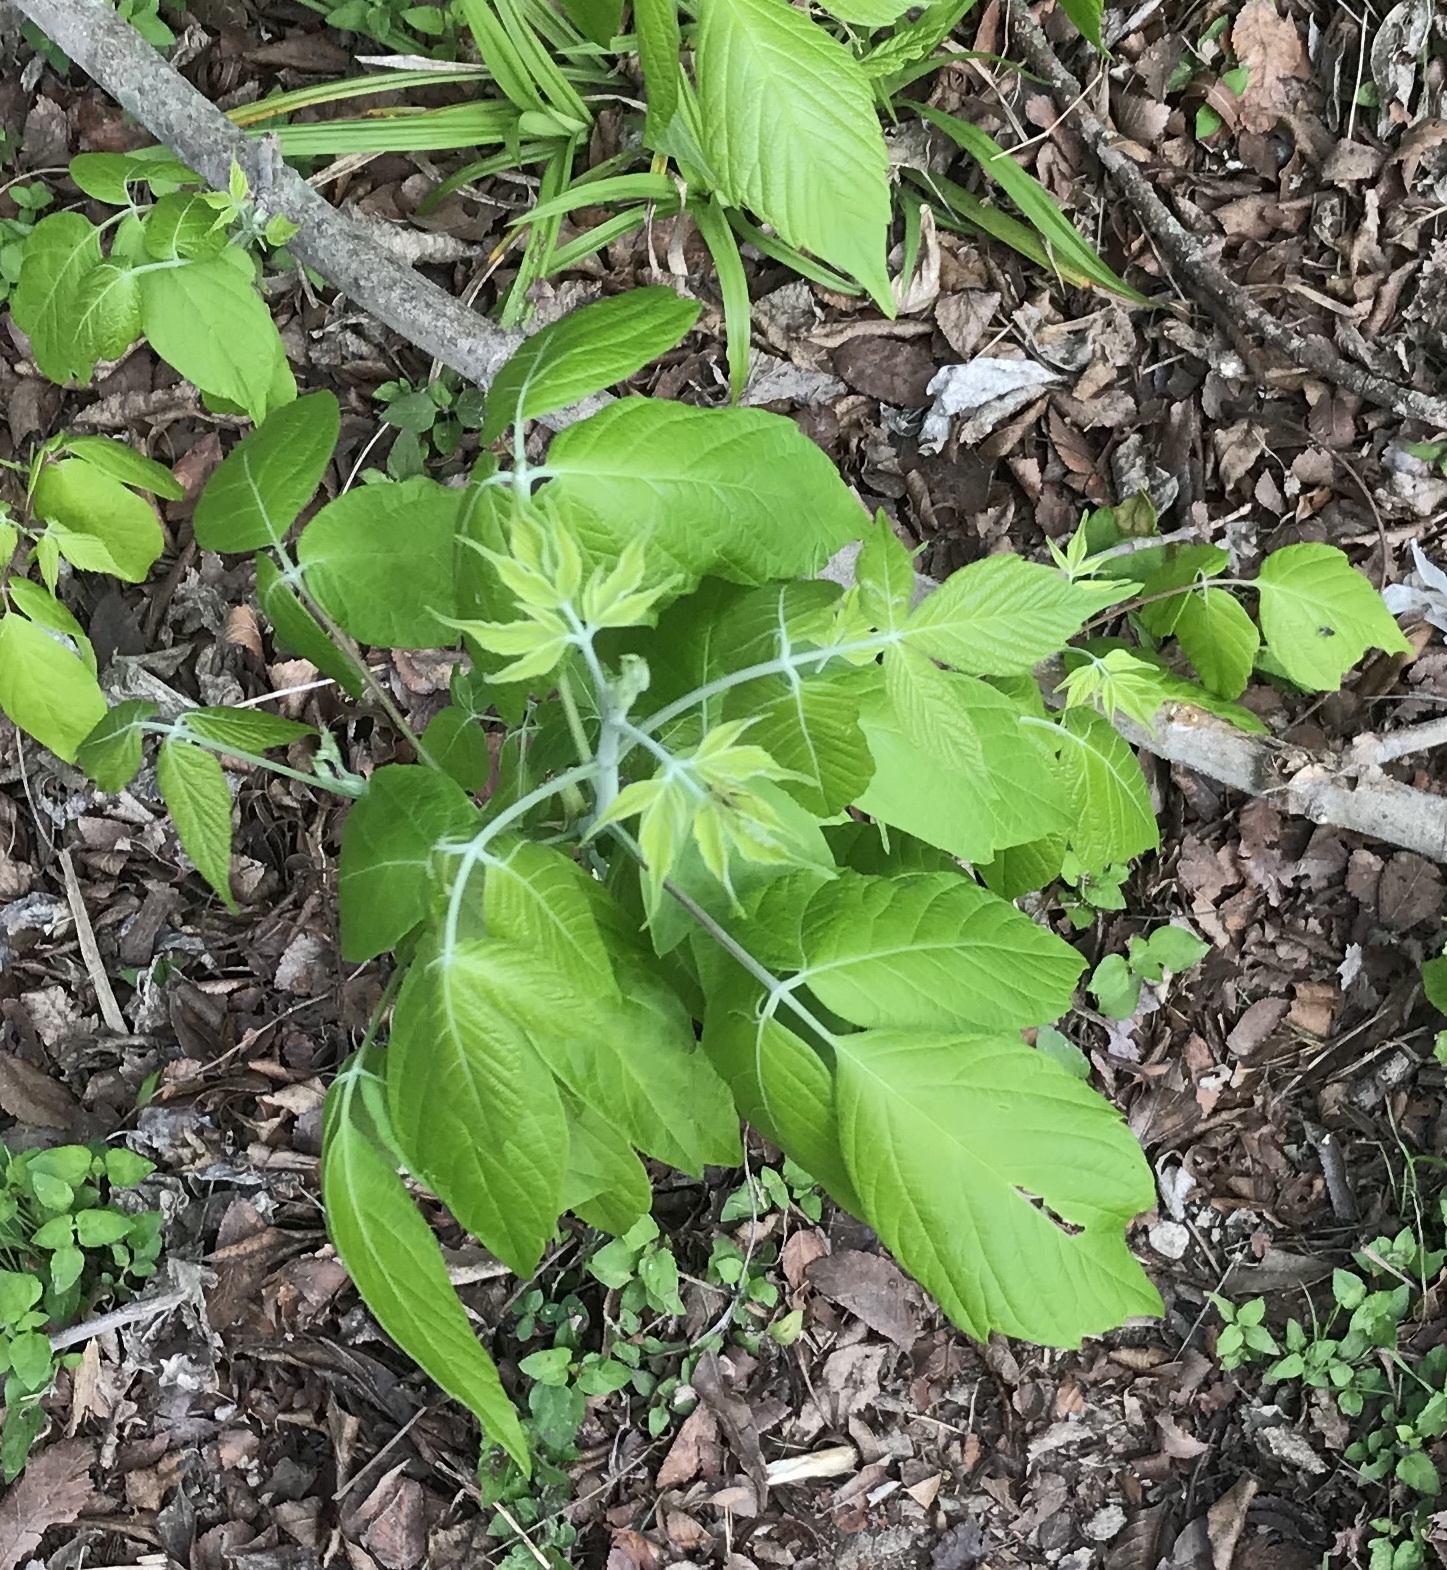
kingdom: Plantae
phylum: Tracheophyta
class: Magnoliopsida
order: Sapindales
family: Sapindaceae
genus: Acer
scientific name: Acer negundo
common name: Ashleaf maple
